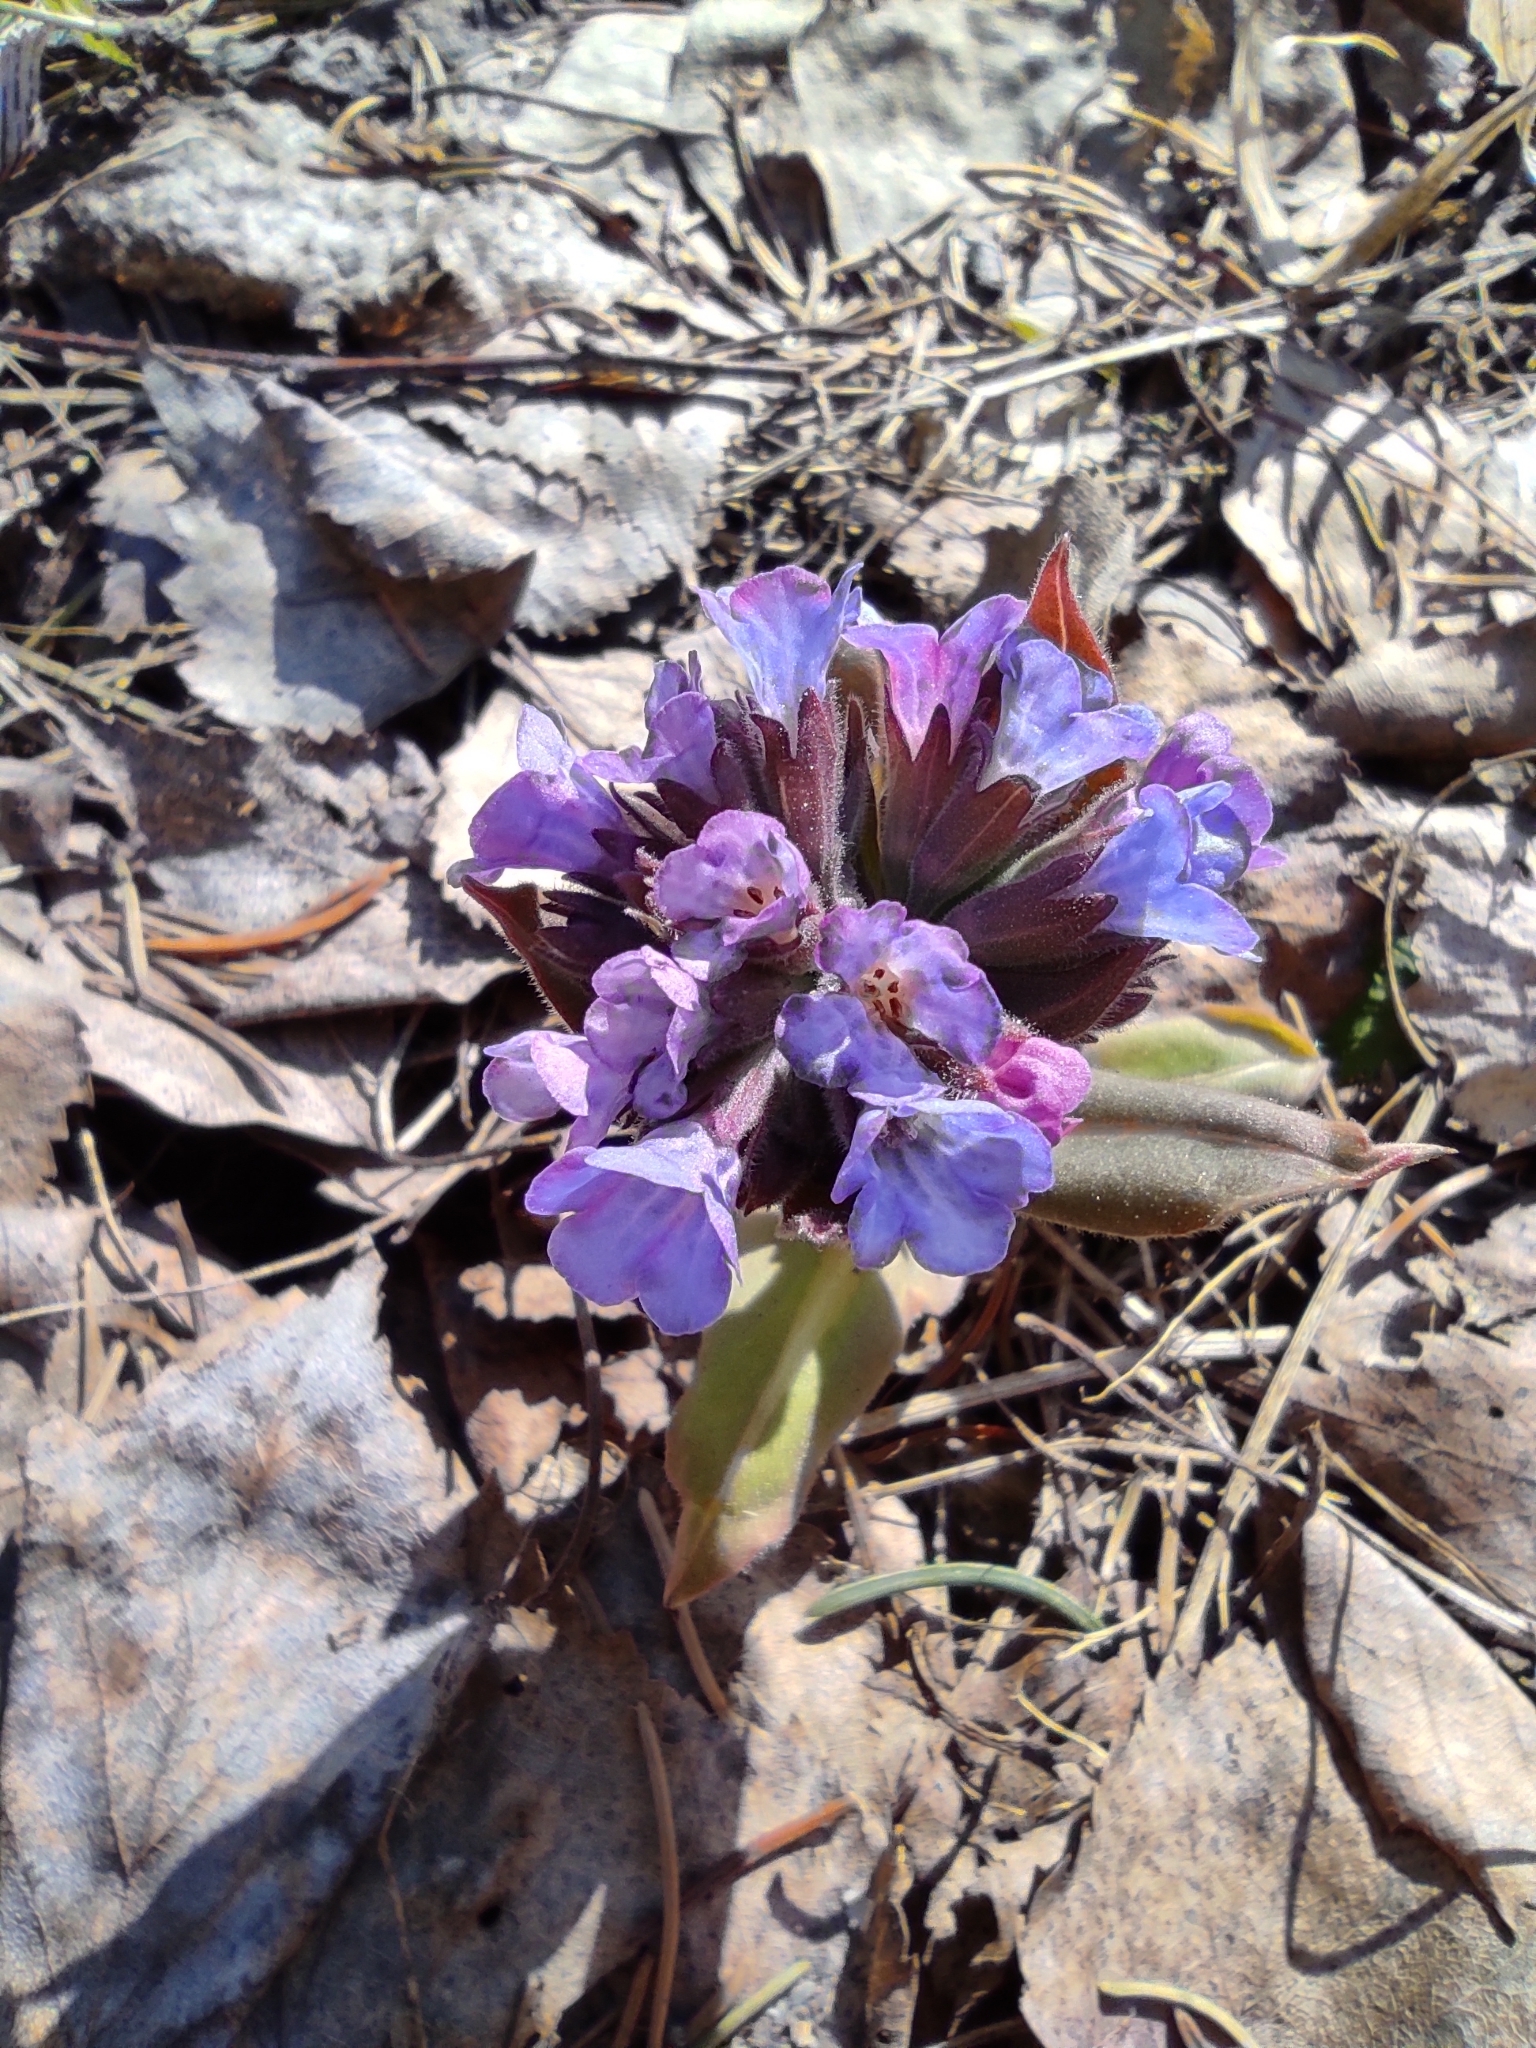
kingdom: Plantae
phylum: Tracheophyta
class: Magnoliopsida
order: Boraginales
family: Boraginaceae
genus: Pulmonaria
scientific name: Pulmonaria mollis
